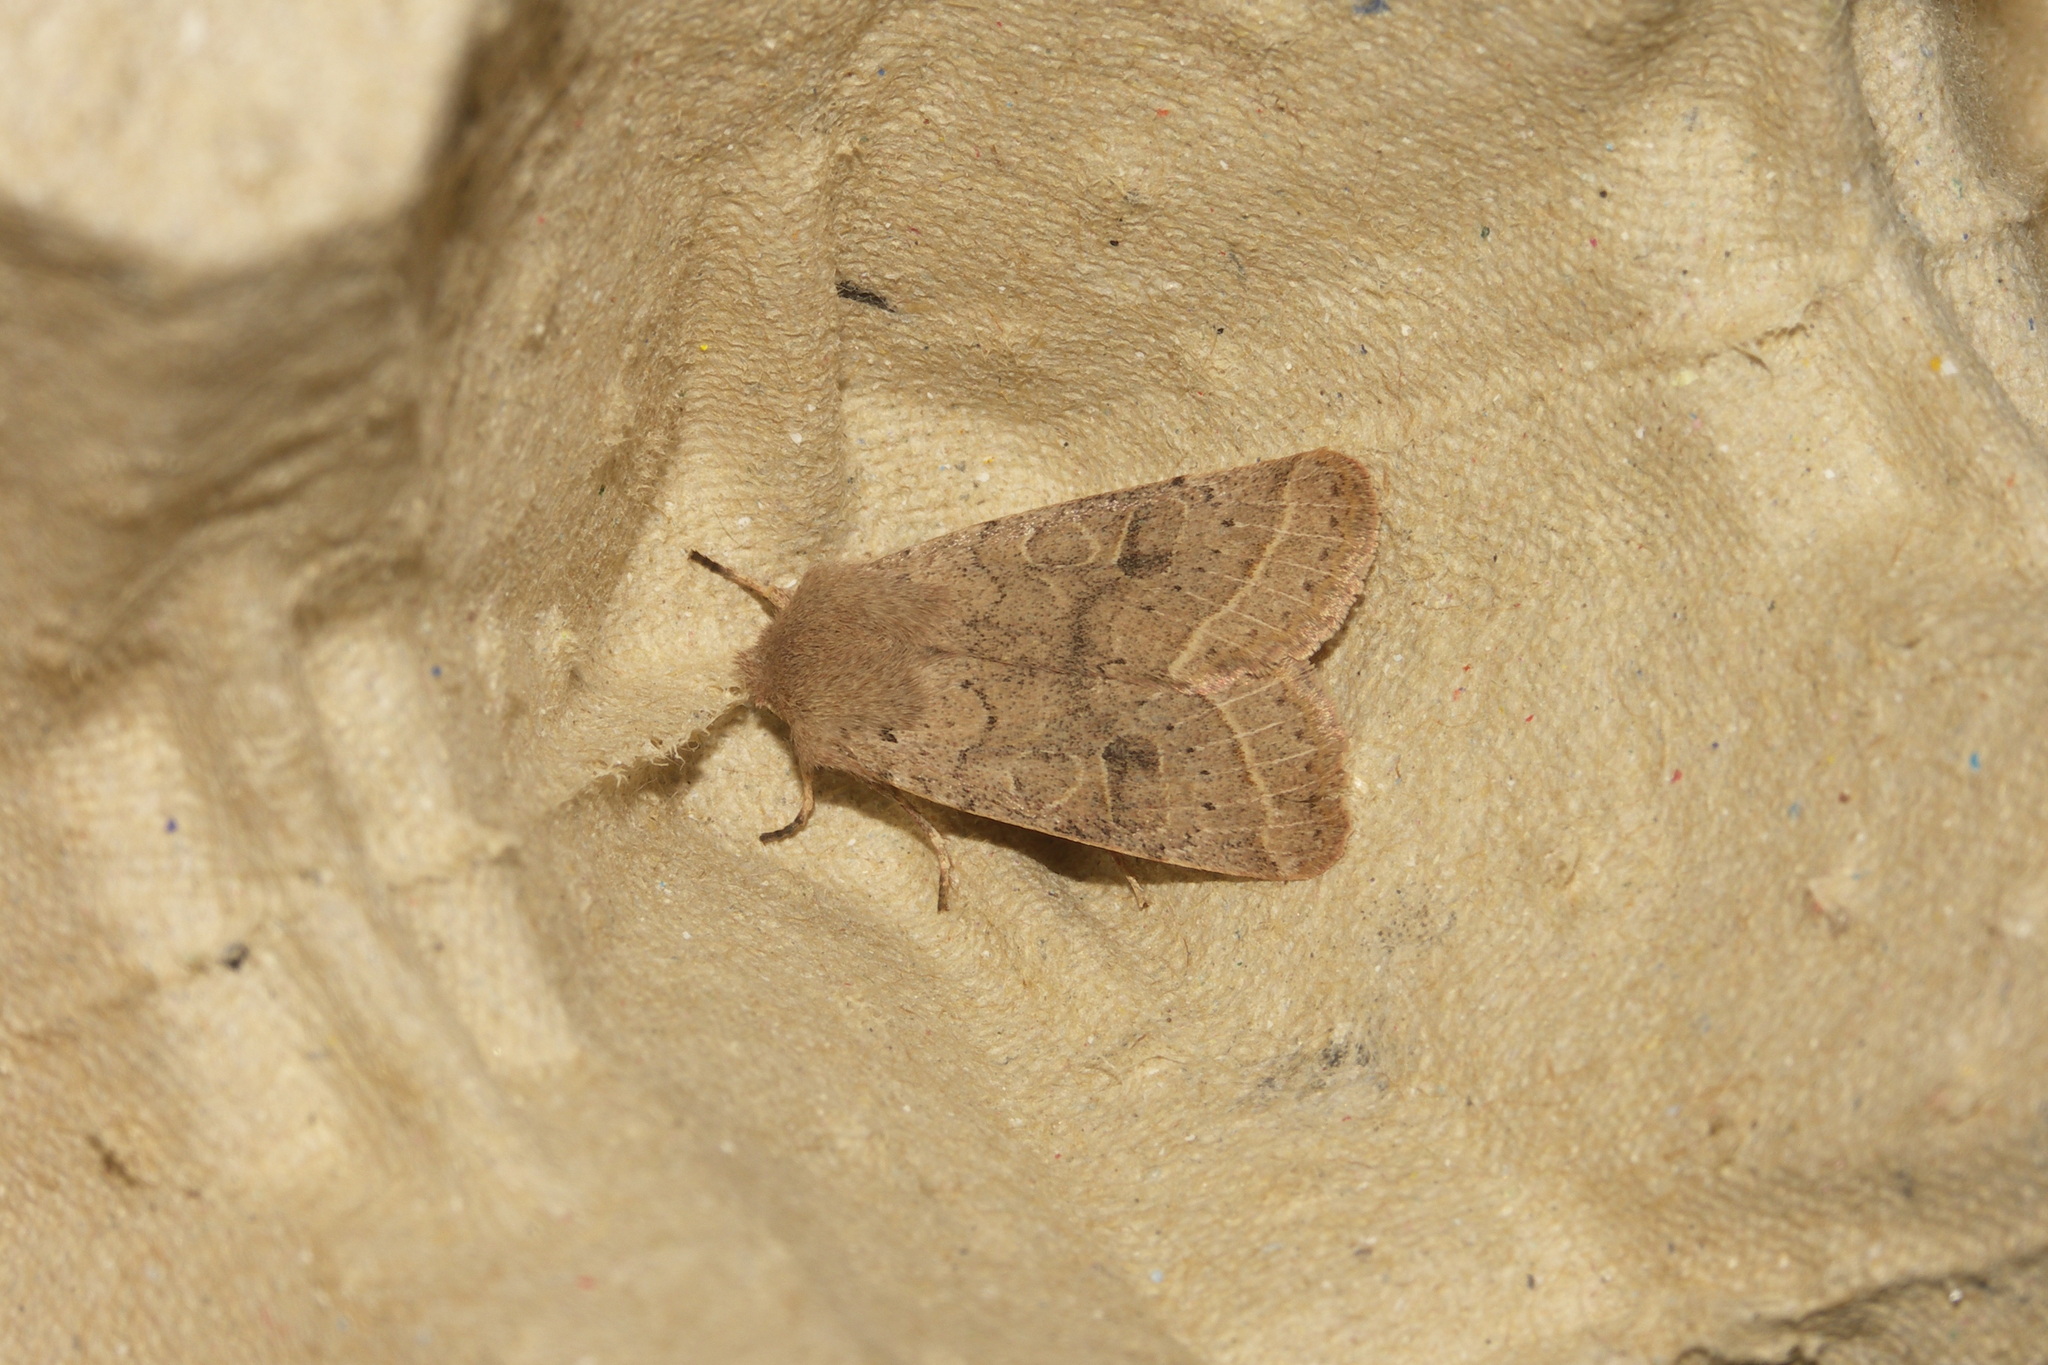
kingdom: Animalia
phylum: Arthropoda
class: Insecta
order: Lepidoptera
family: Noctuidae
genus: Orthosia
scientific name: Orthosia cerasi
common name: Common quaker
